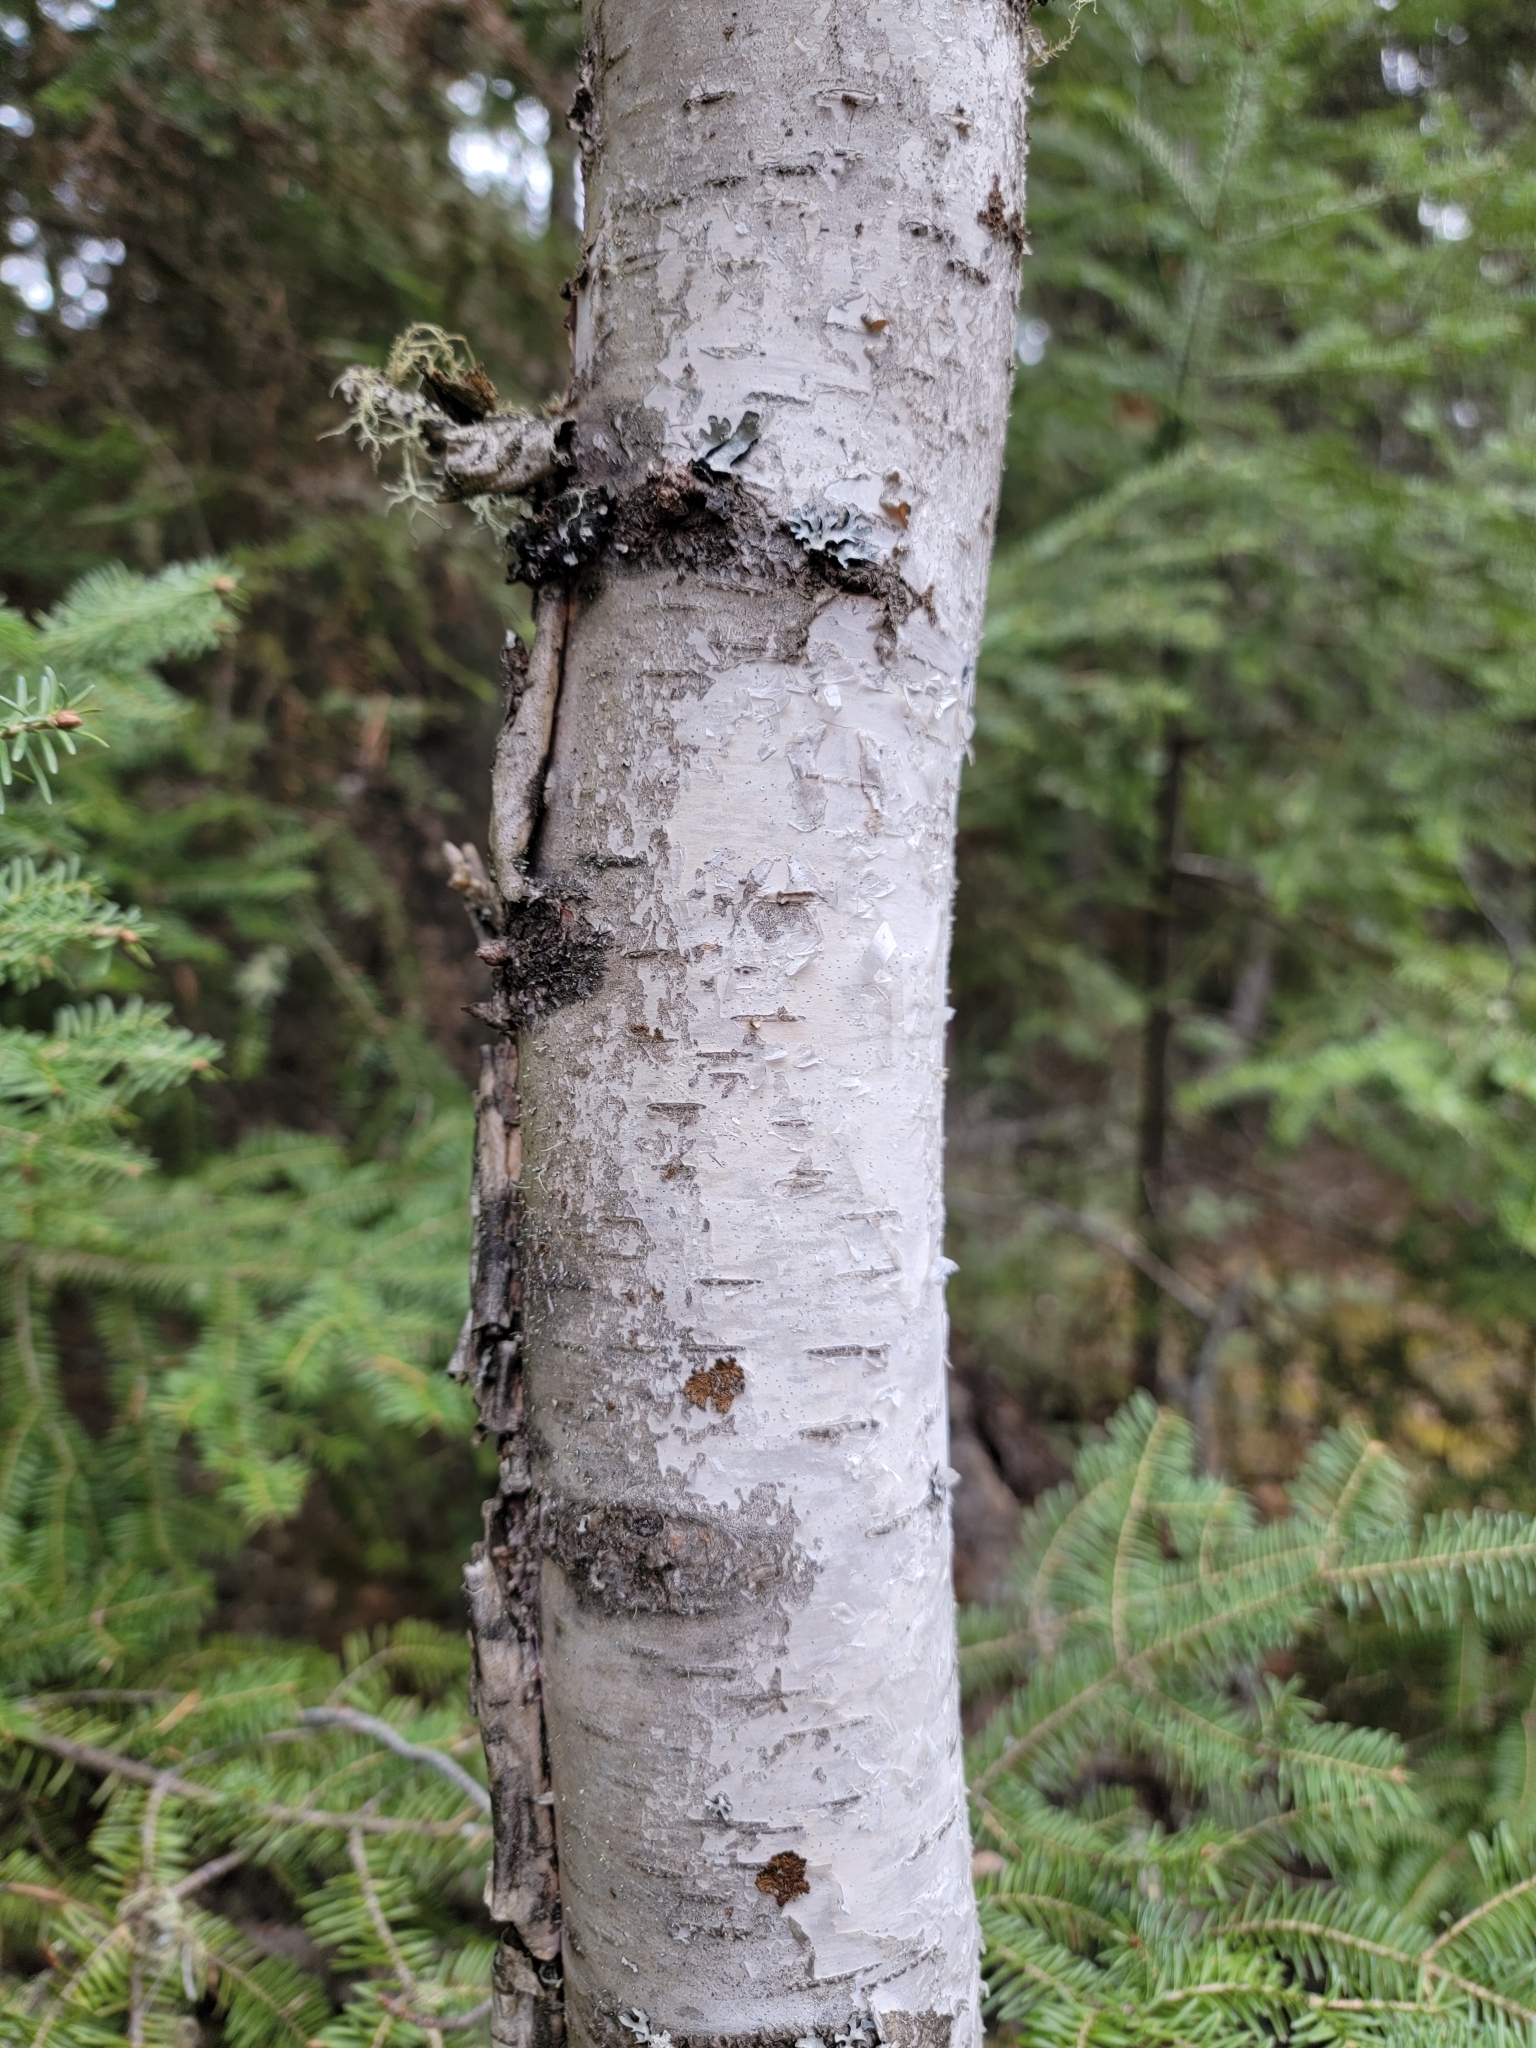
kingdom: Plantae
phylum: Tracheophyta
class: Magnoliopsida
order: Fagales
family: Betulaceae
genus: Betula
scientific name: Betula papyrifera
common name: Paper birch
